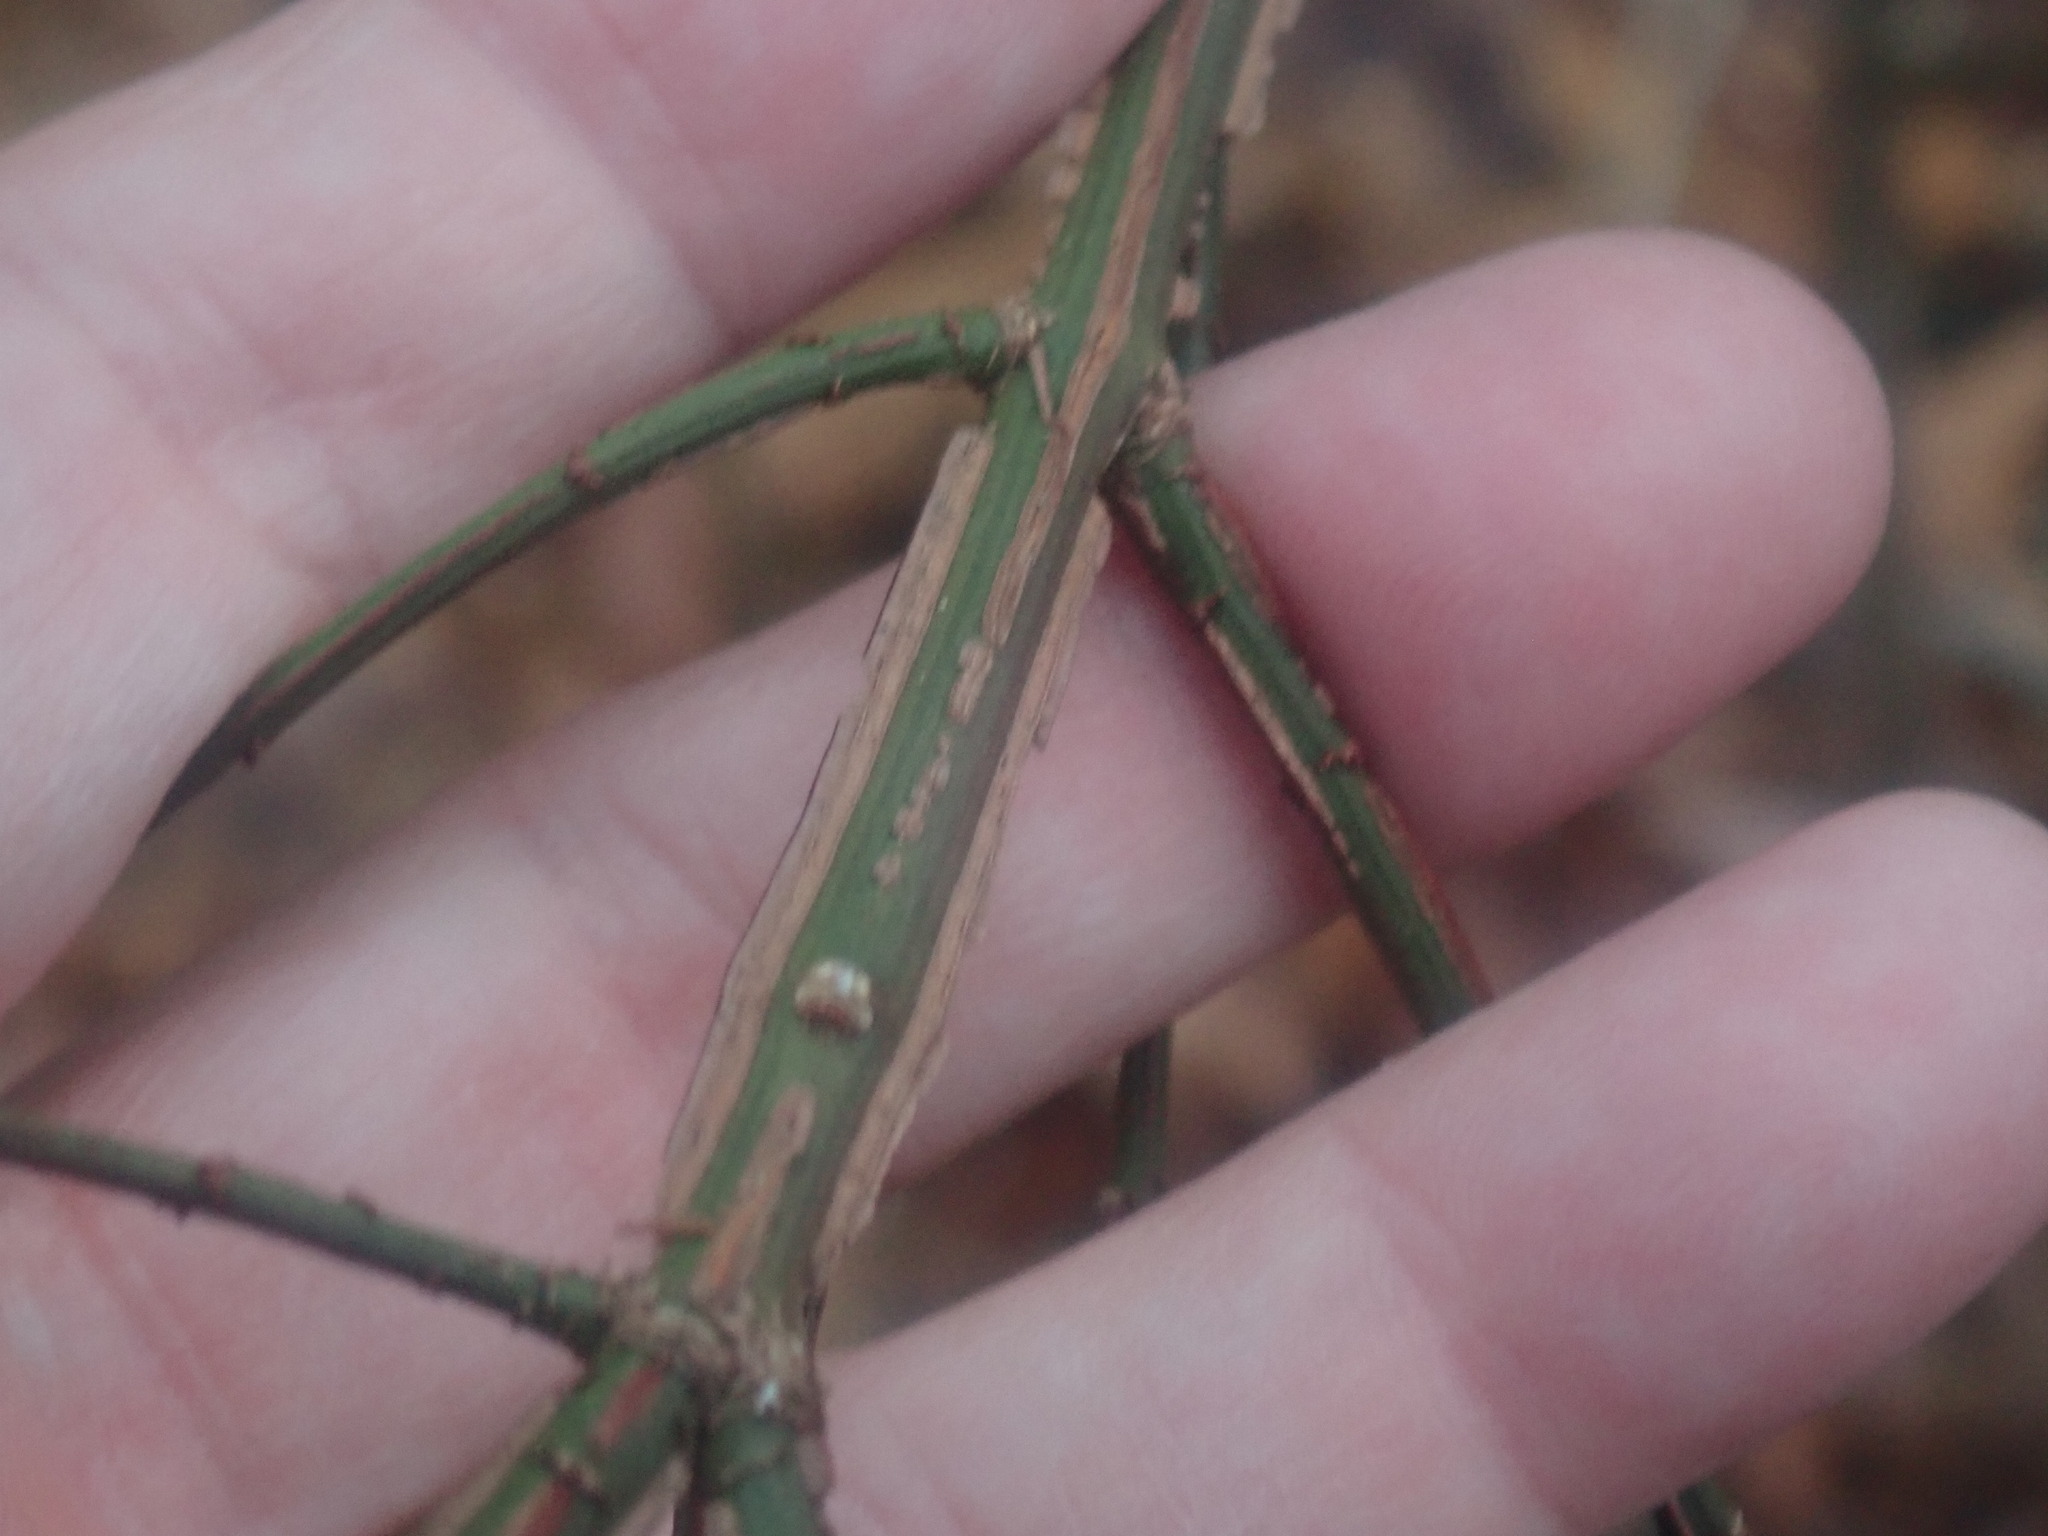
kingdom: Plantae
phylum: Tracheophyta
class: Magnoliopsida
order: Celastrales
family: Celastraceae
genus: Euonymus
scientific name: Euonymus alatus
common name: Winged euonymus
